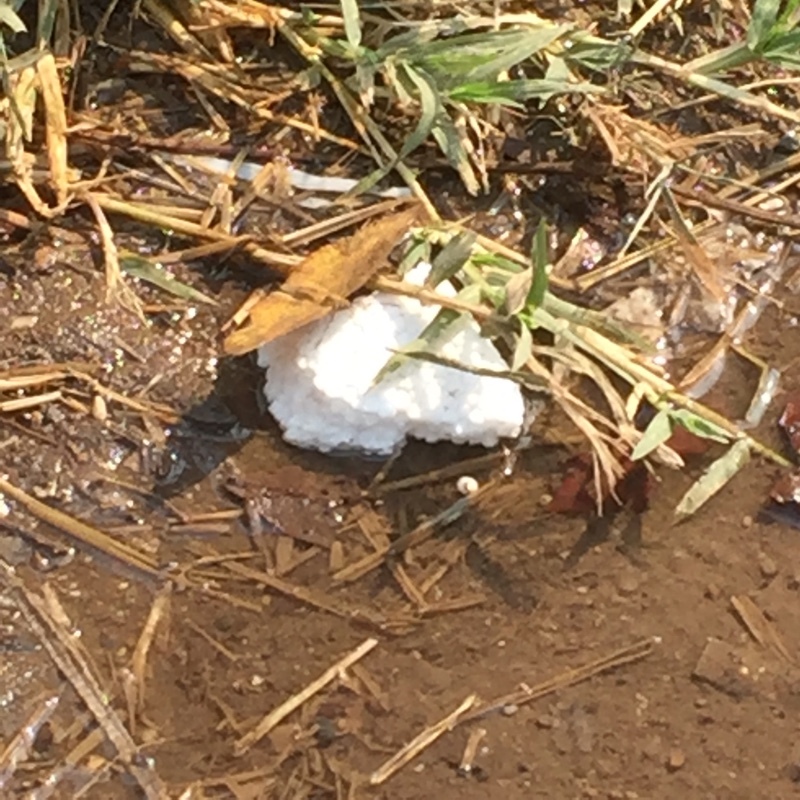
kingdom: Animalia
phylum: Arthropoda
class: Insecta
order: Lepidoptera
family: Nymphalidae
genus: Ariadne
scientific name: Ariadne merione
